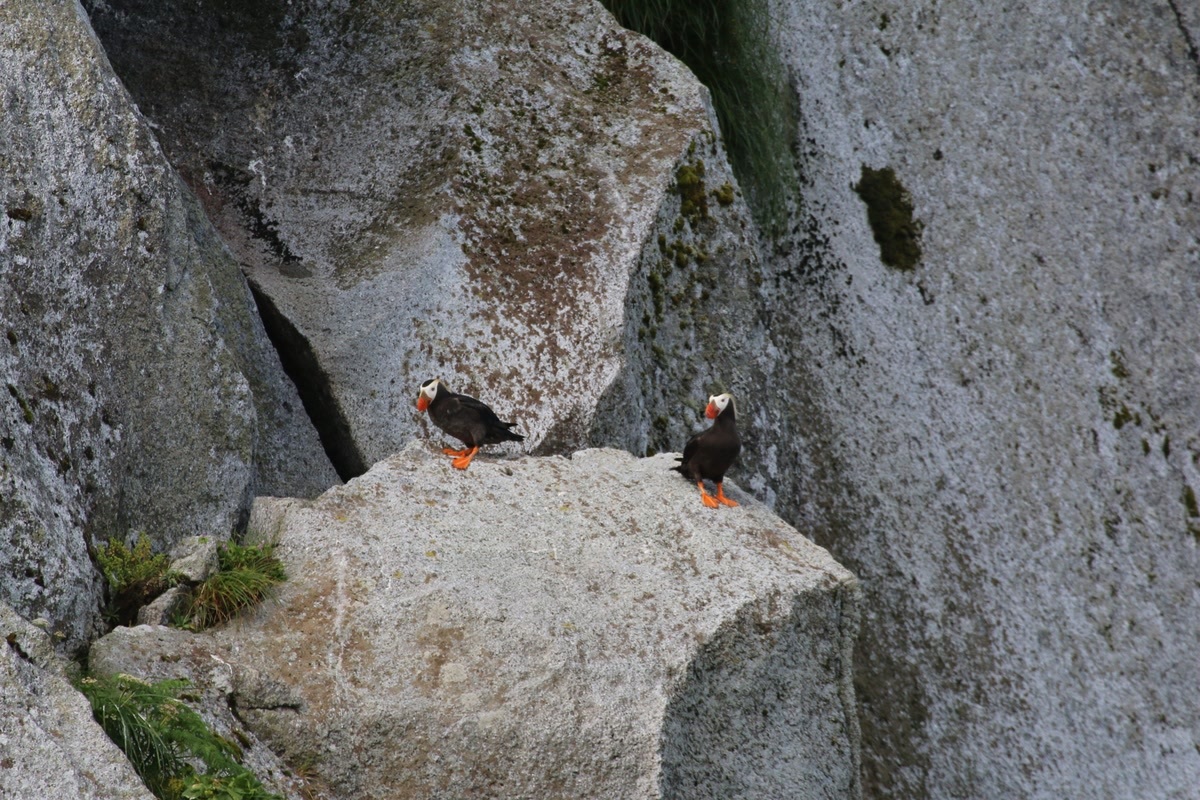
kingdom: Animalia
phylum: Chordata
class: Aves
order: Charadriiformes
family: Alcidae
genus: Fratercula
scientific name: Fratercula cirrhata
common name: Tufted puffin
